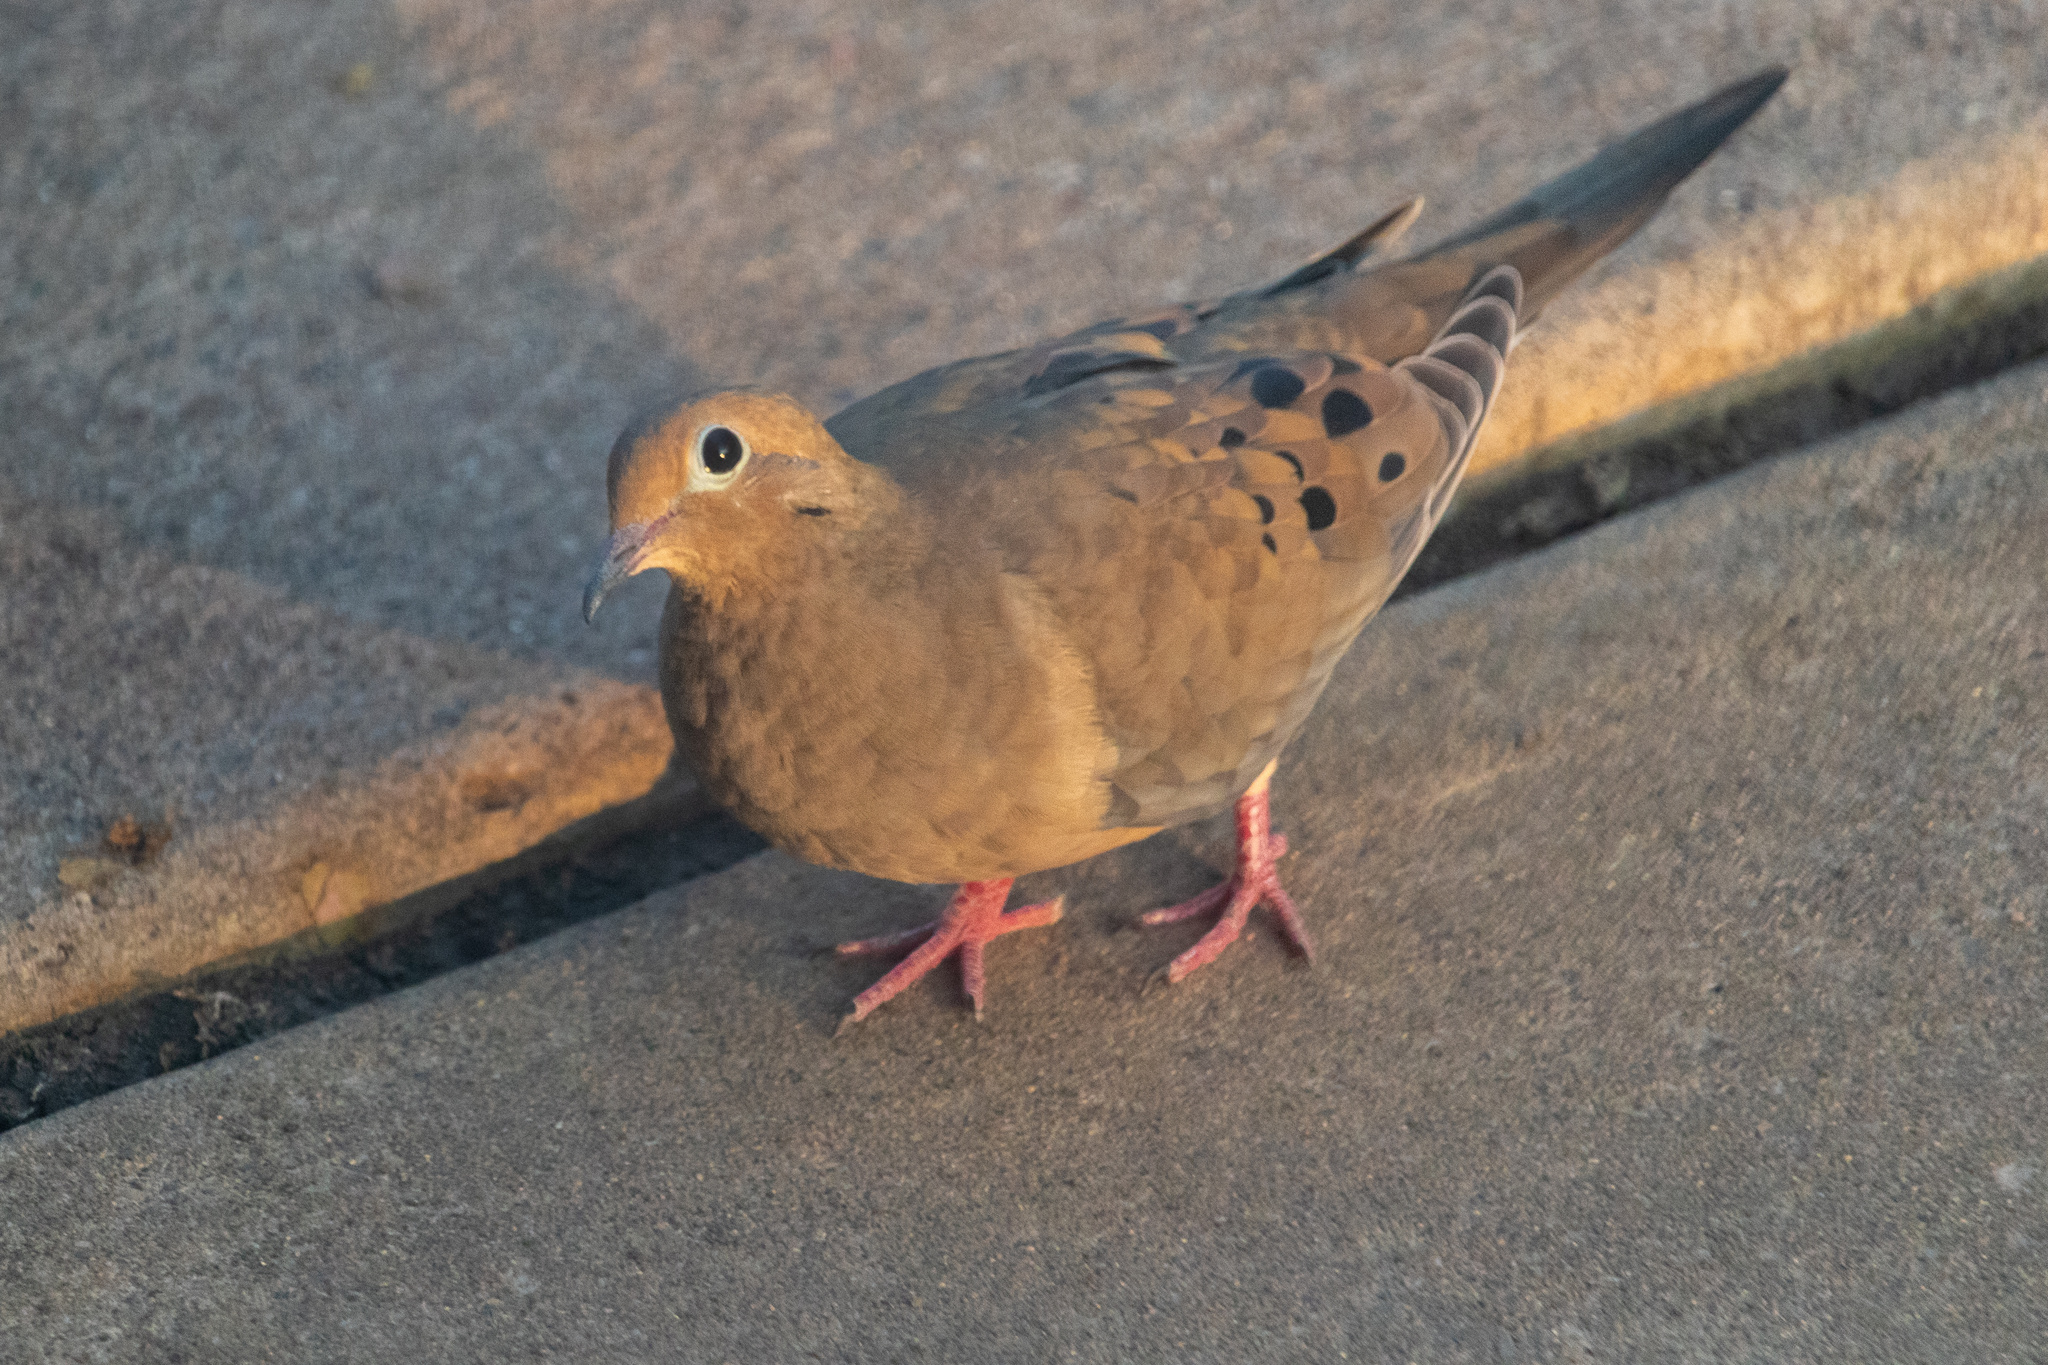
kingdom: Animalia
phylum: Chordata
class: Aves
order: Columbiformes
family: Columbidae
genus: Zenaida
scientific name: Zenaida macroura
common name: Mourning dove
